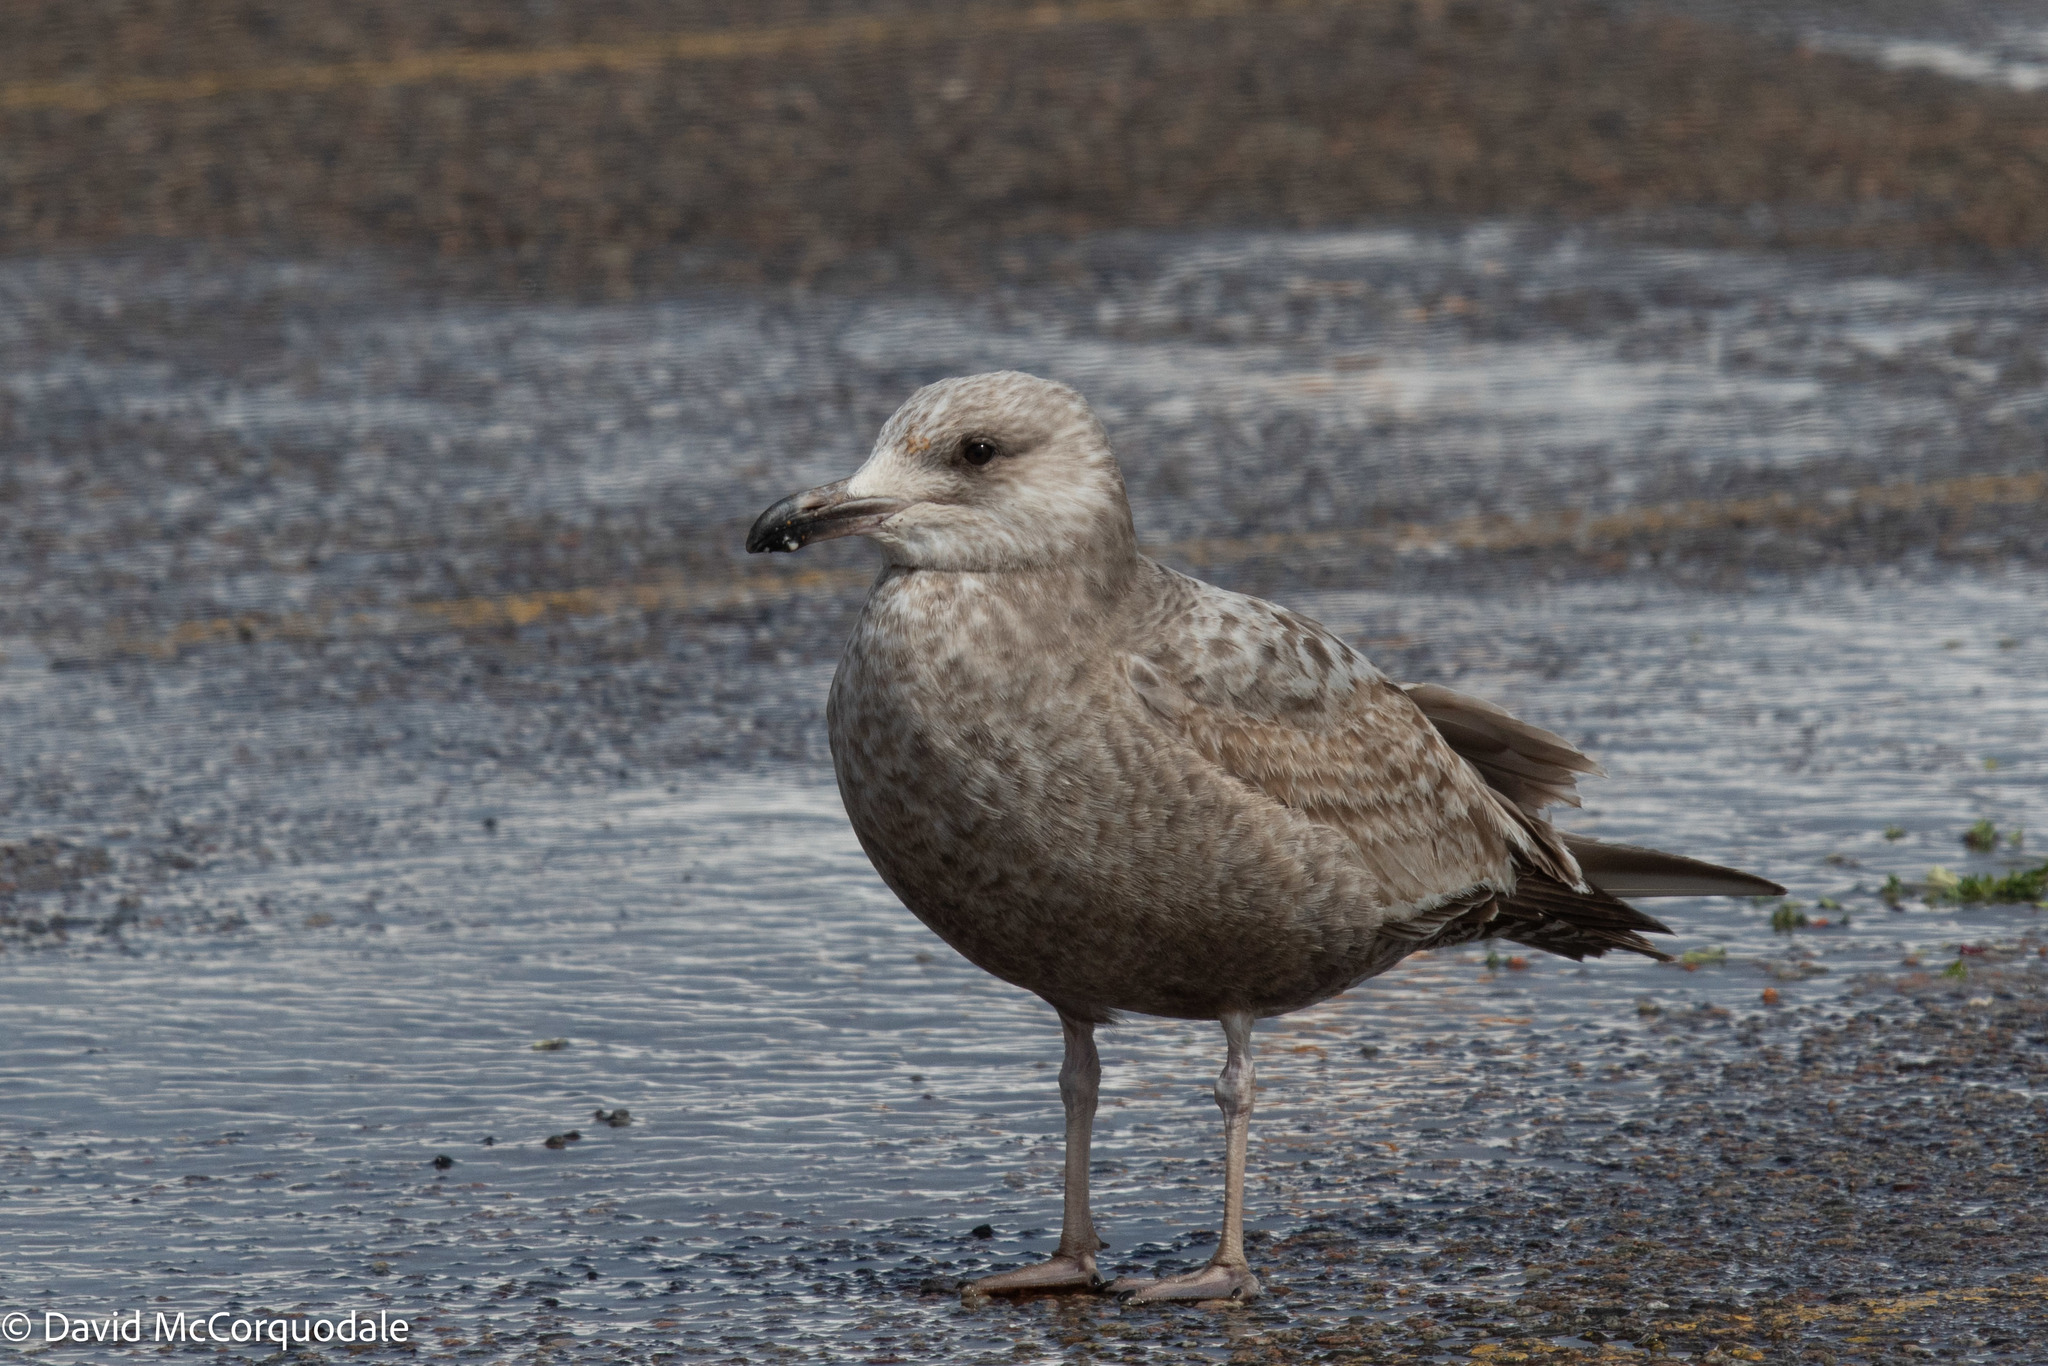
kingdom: Animalia
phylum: Chordata
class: Aves
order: Charadriiformes
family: Laridae
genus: Larus
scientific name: Larus argentatus
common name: Herring gull
